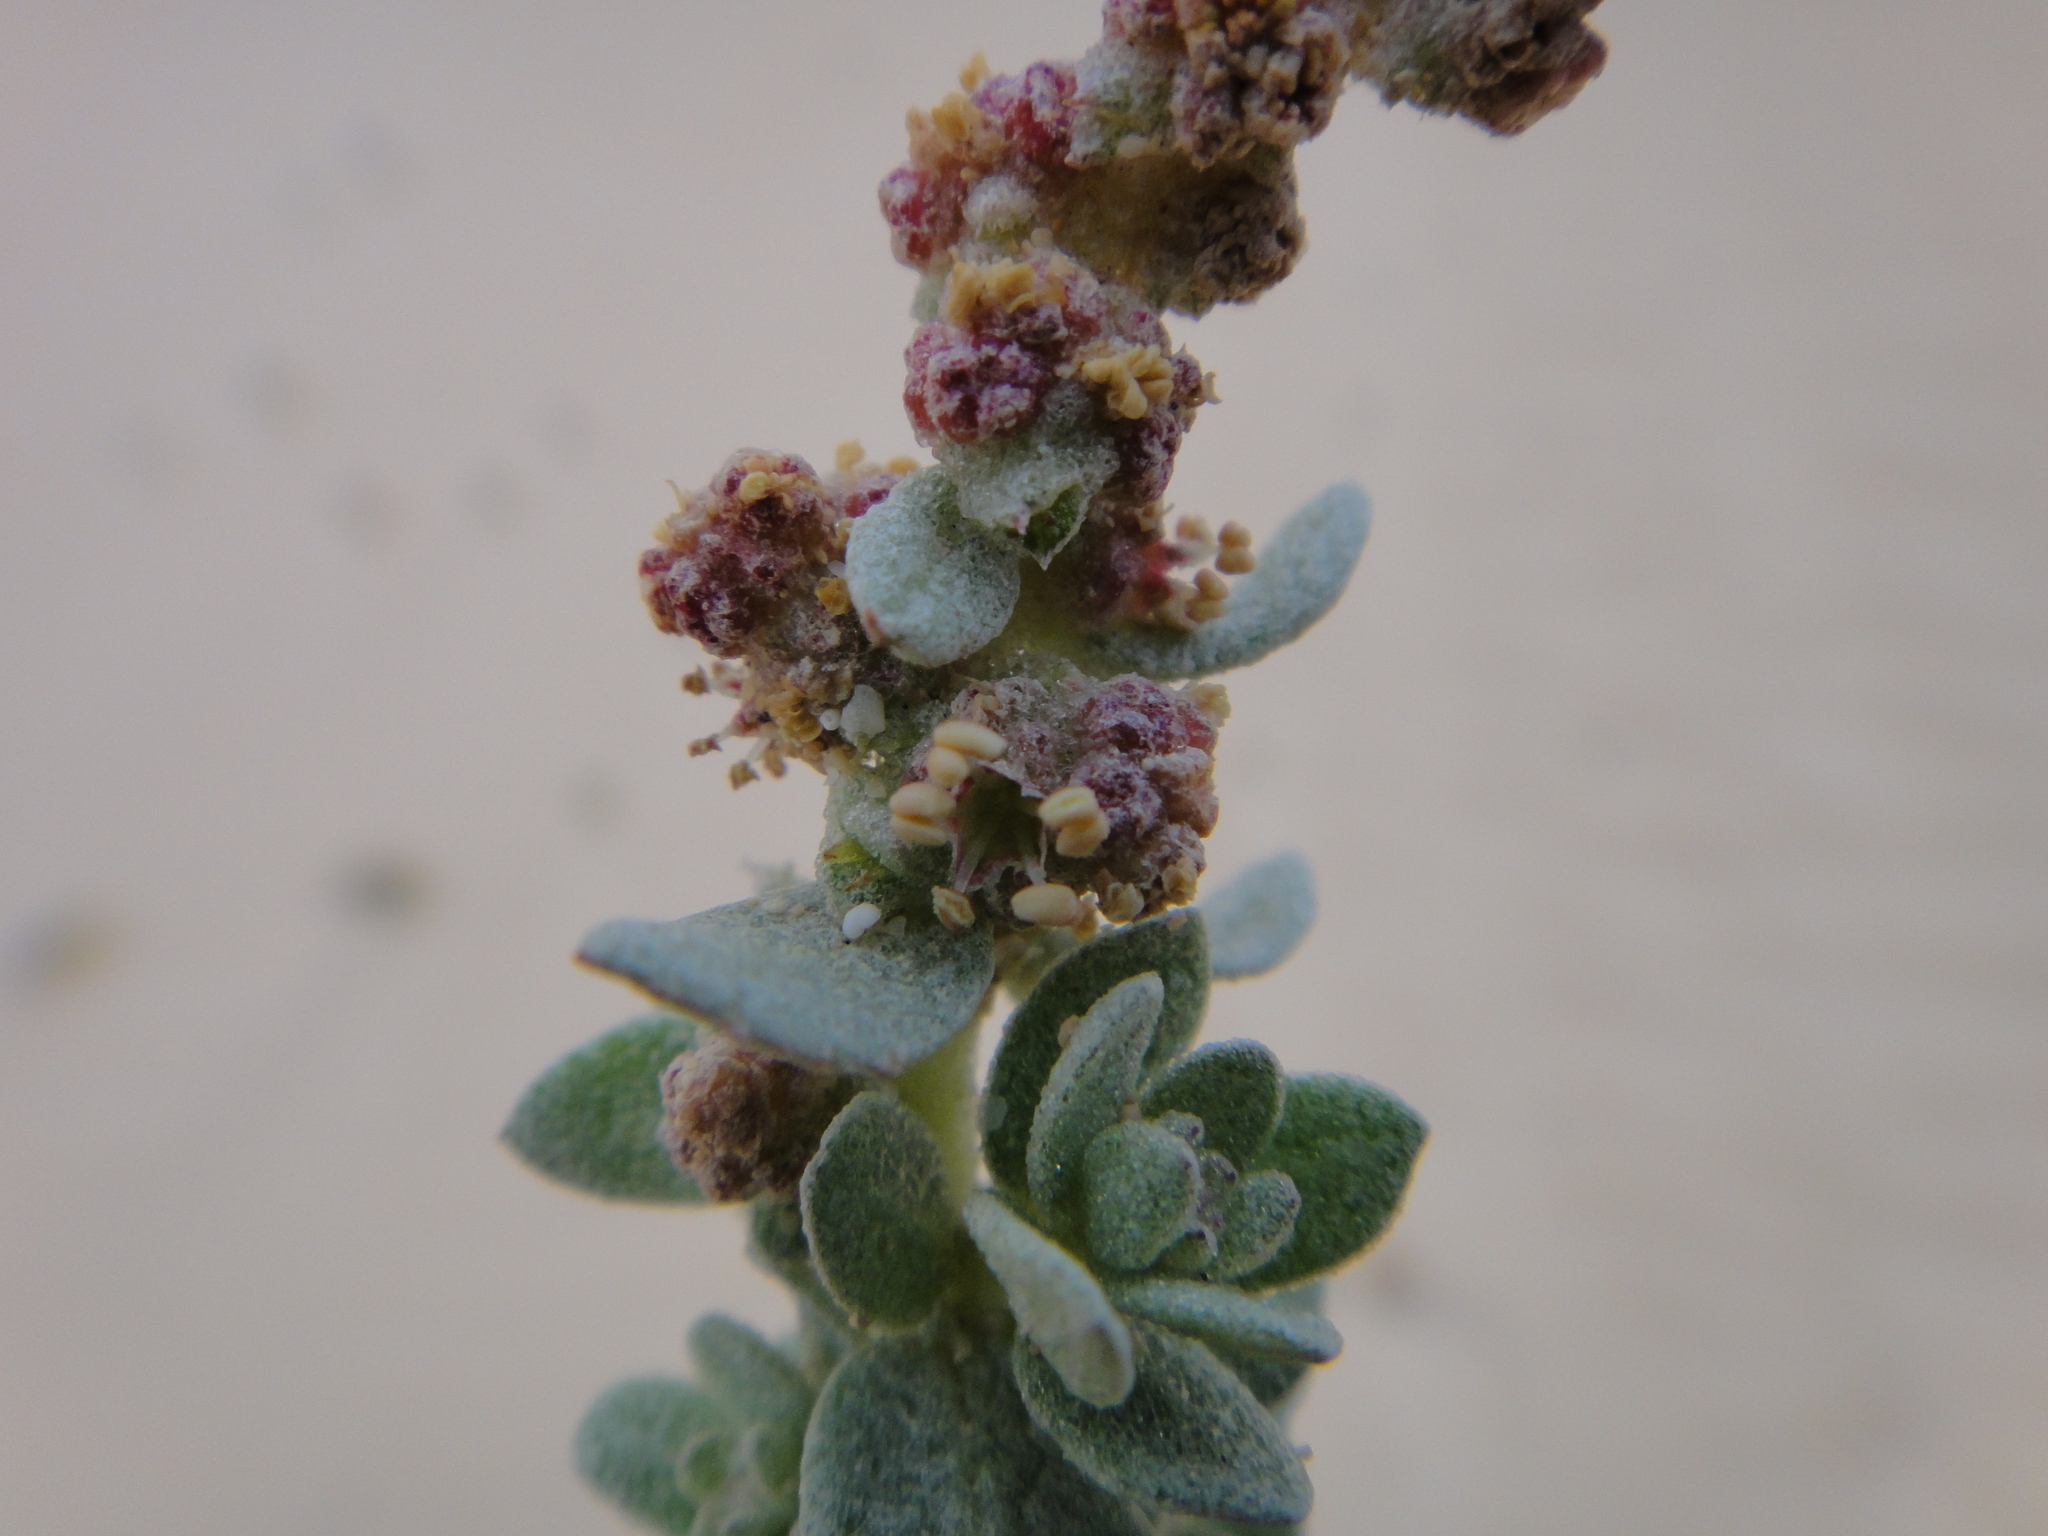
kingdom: Plantae
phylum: Tracheophyta
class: Magnoliopsida
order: Caryophyllales
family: Amaranthaceae
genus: Atriplex
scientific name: Atriplex glauca
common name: Waxy saltbush
